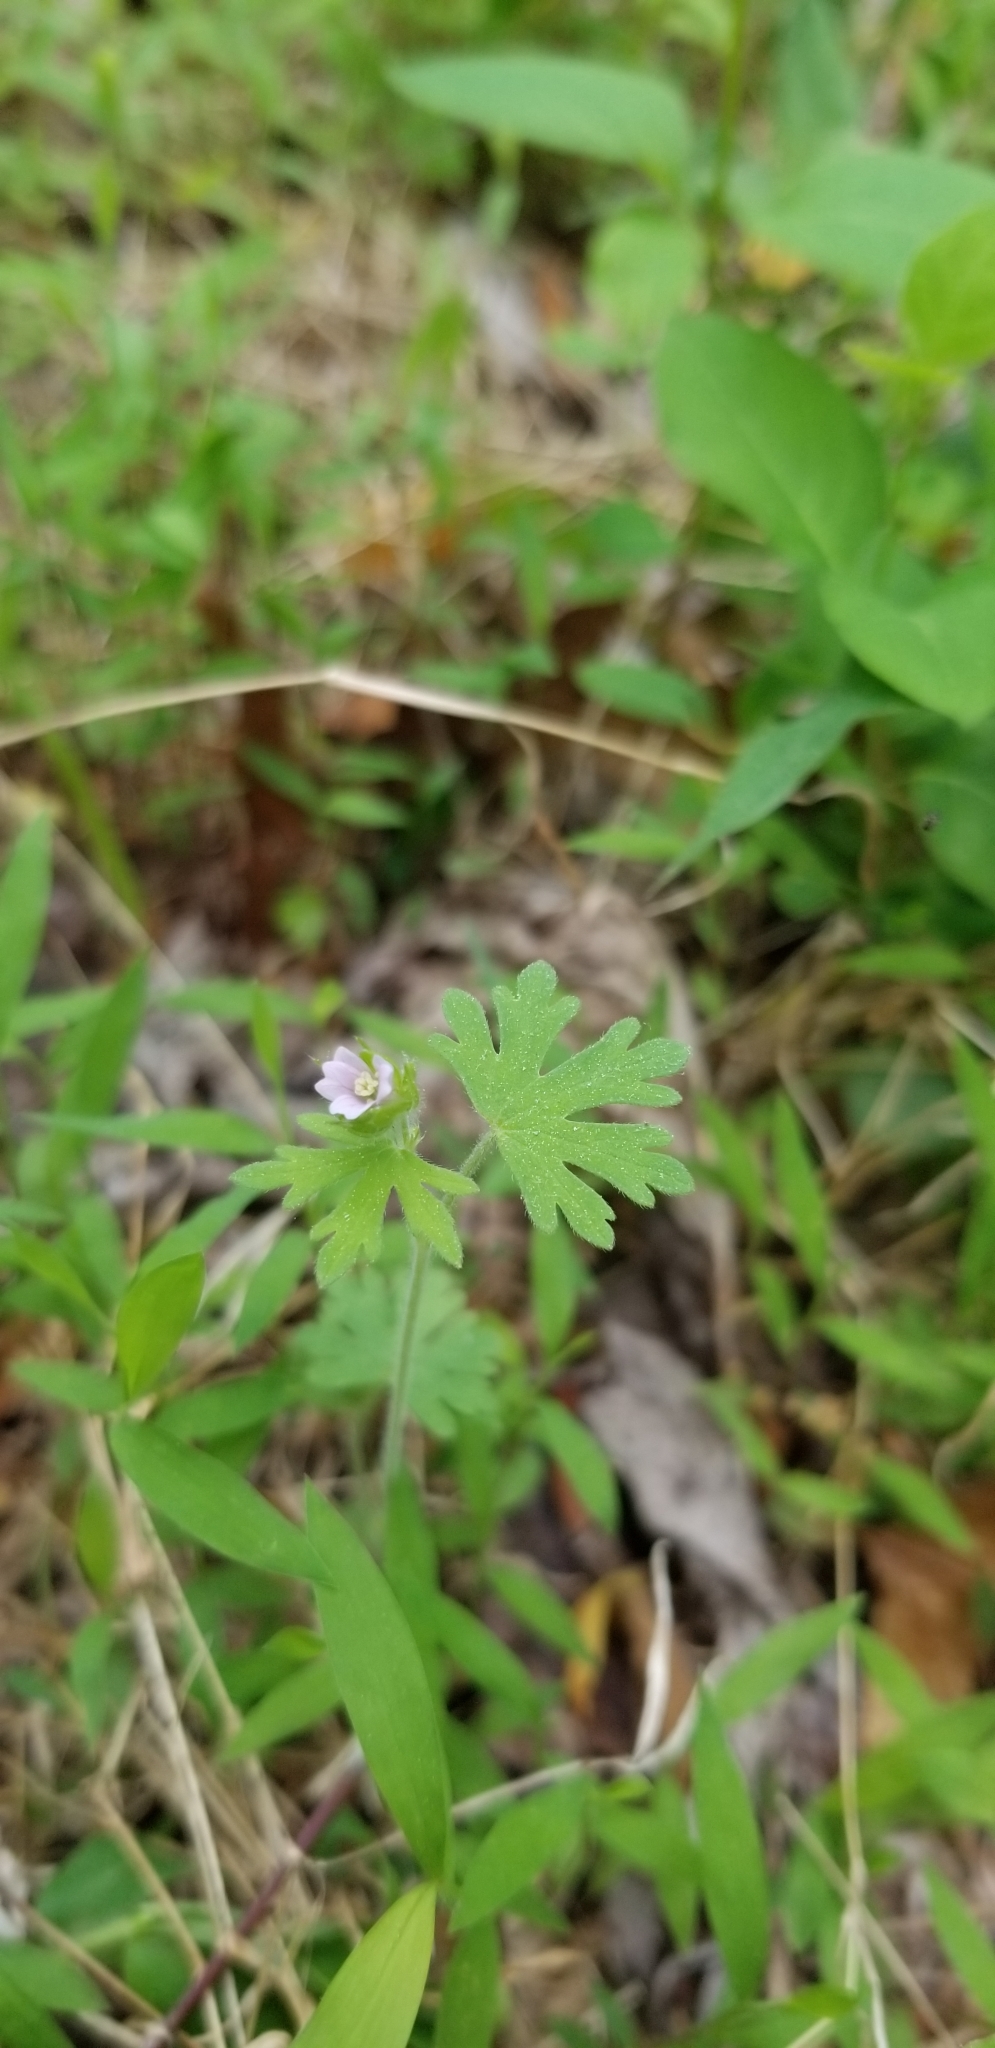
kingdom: Plantae
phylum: Tracheophyta
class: Magnoliopsida
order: Geraniales
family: Geraniaceae
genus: Geranium
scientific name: Geranium carolinianum
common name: Carolina crane's-bill
